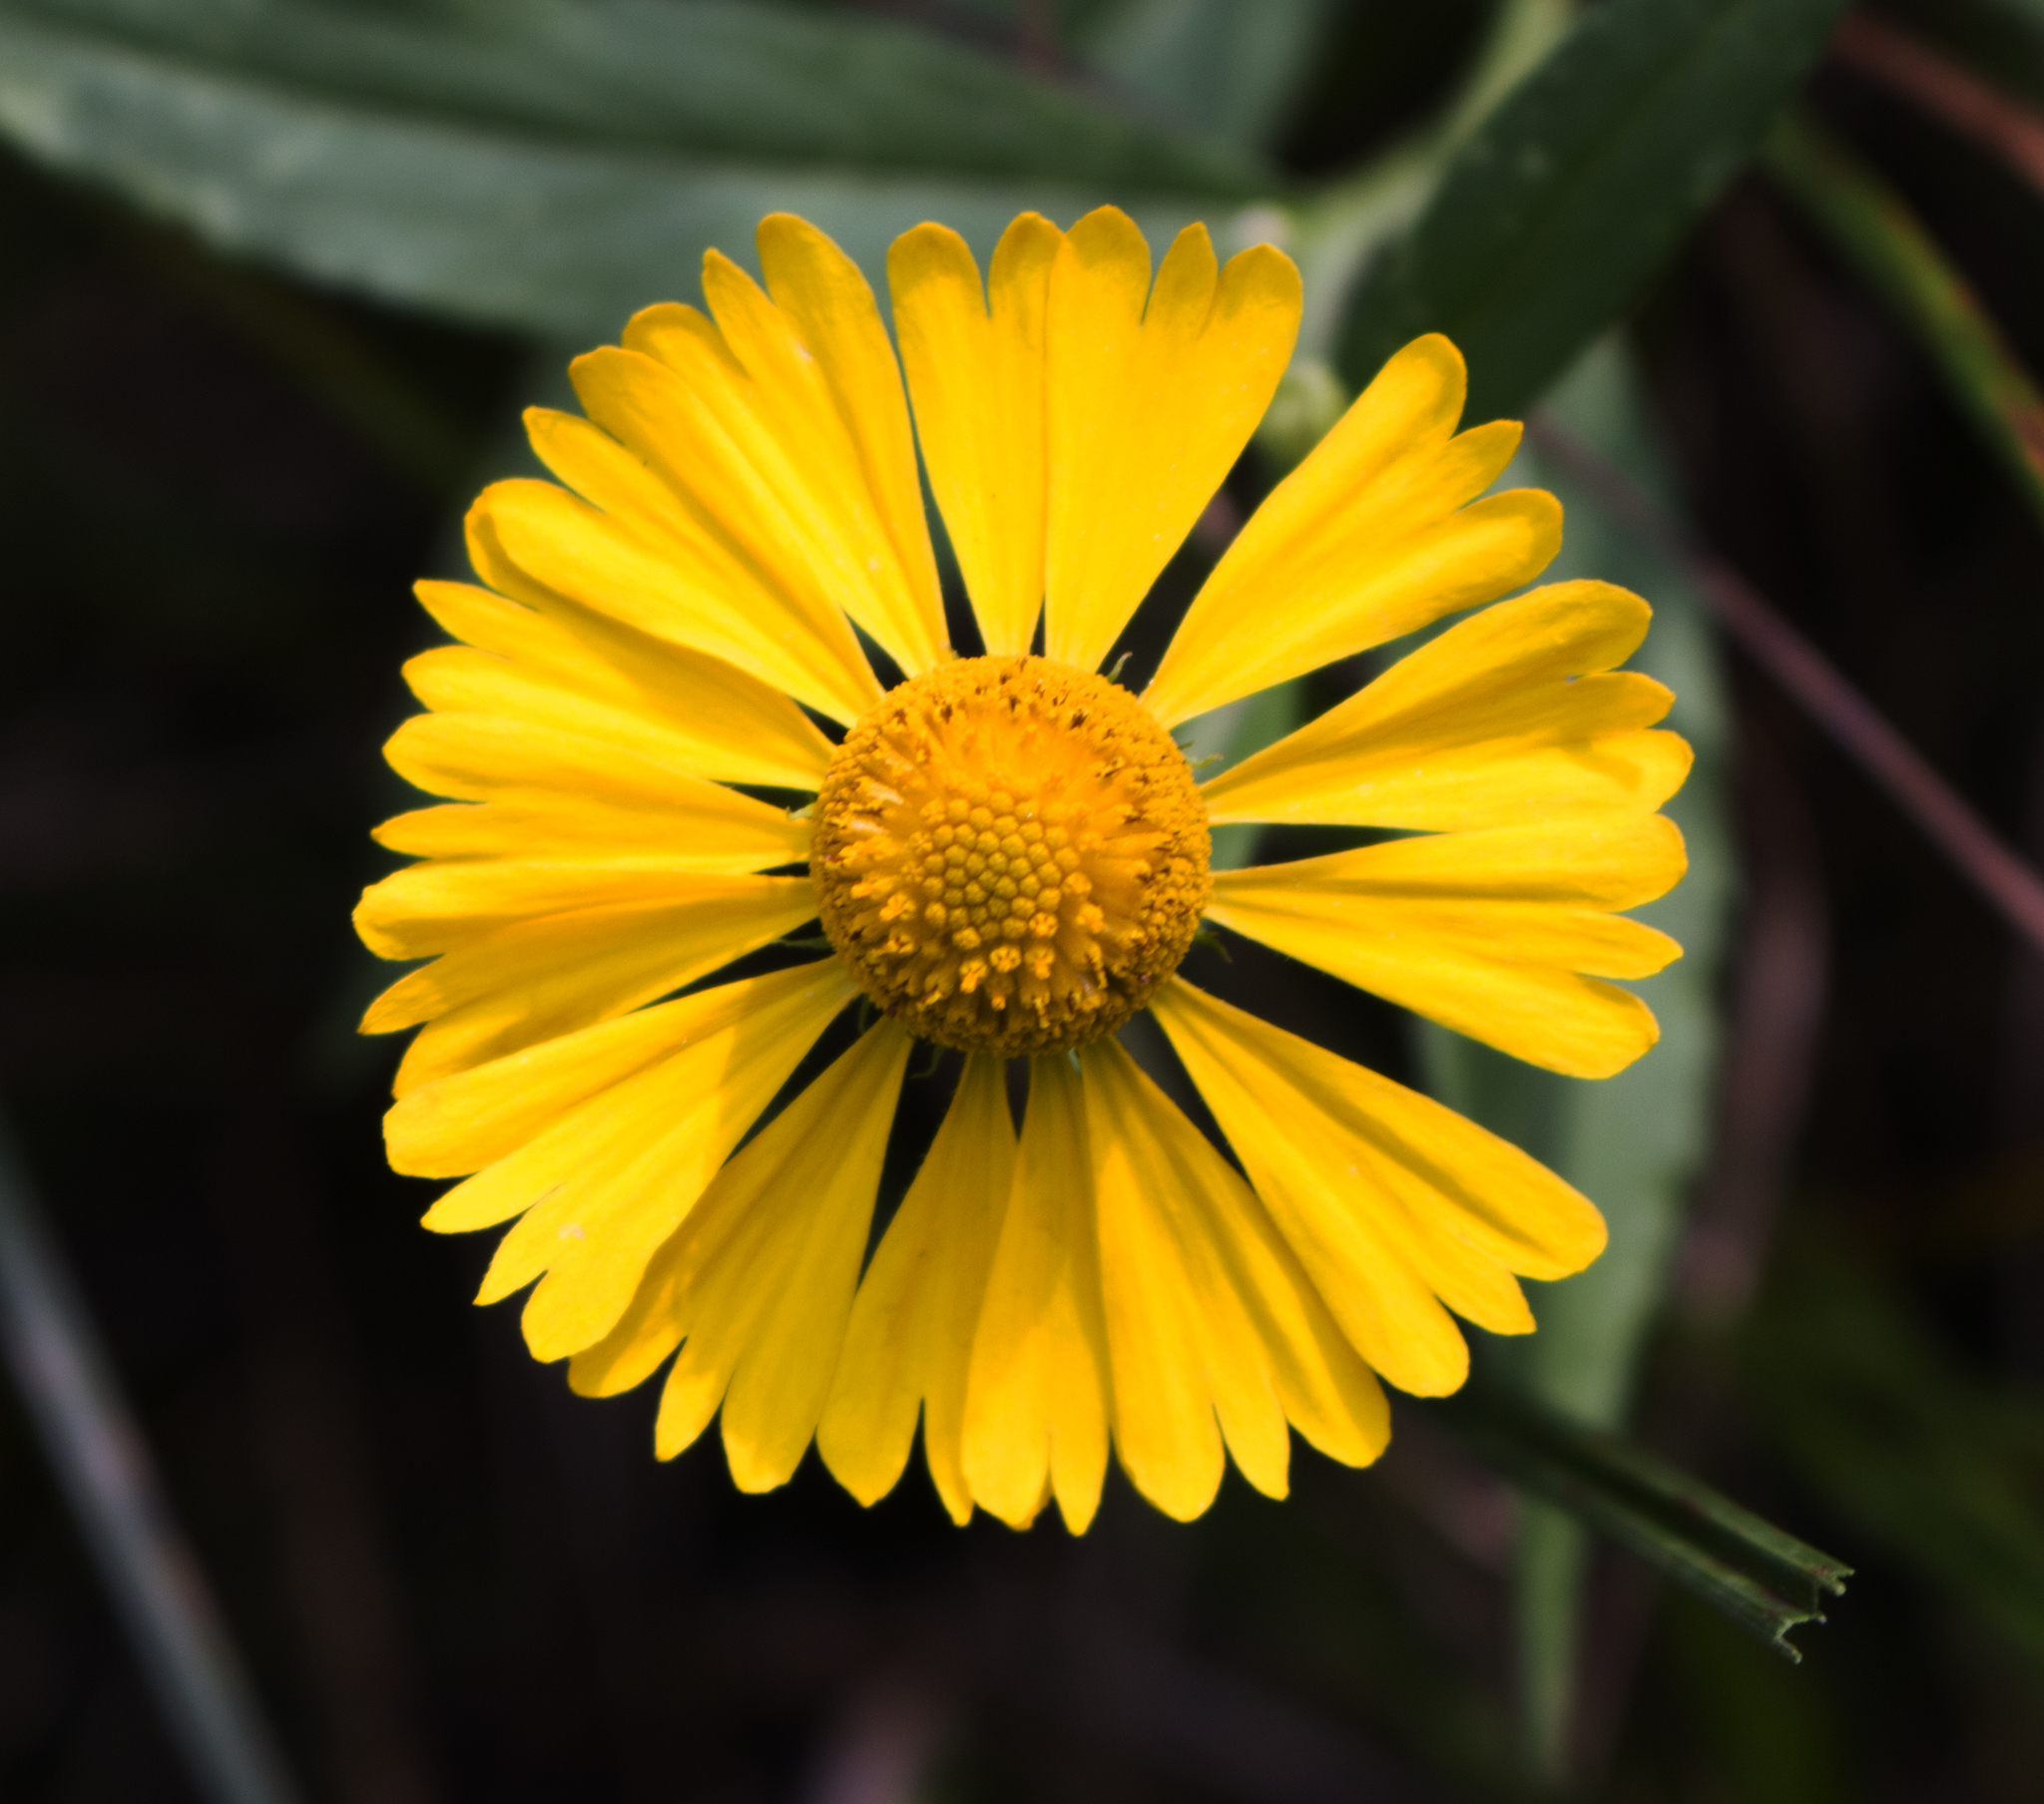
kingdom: Plantae
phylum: Tracheophyta
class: Magnoliopsida
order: Asterales
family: Asteraceae
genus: Helenium
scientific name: Helenium autumnale
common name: Sneezeweed
